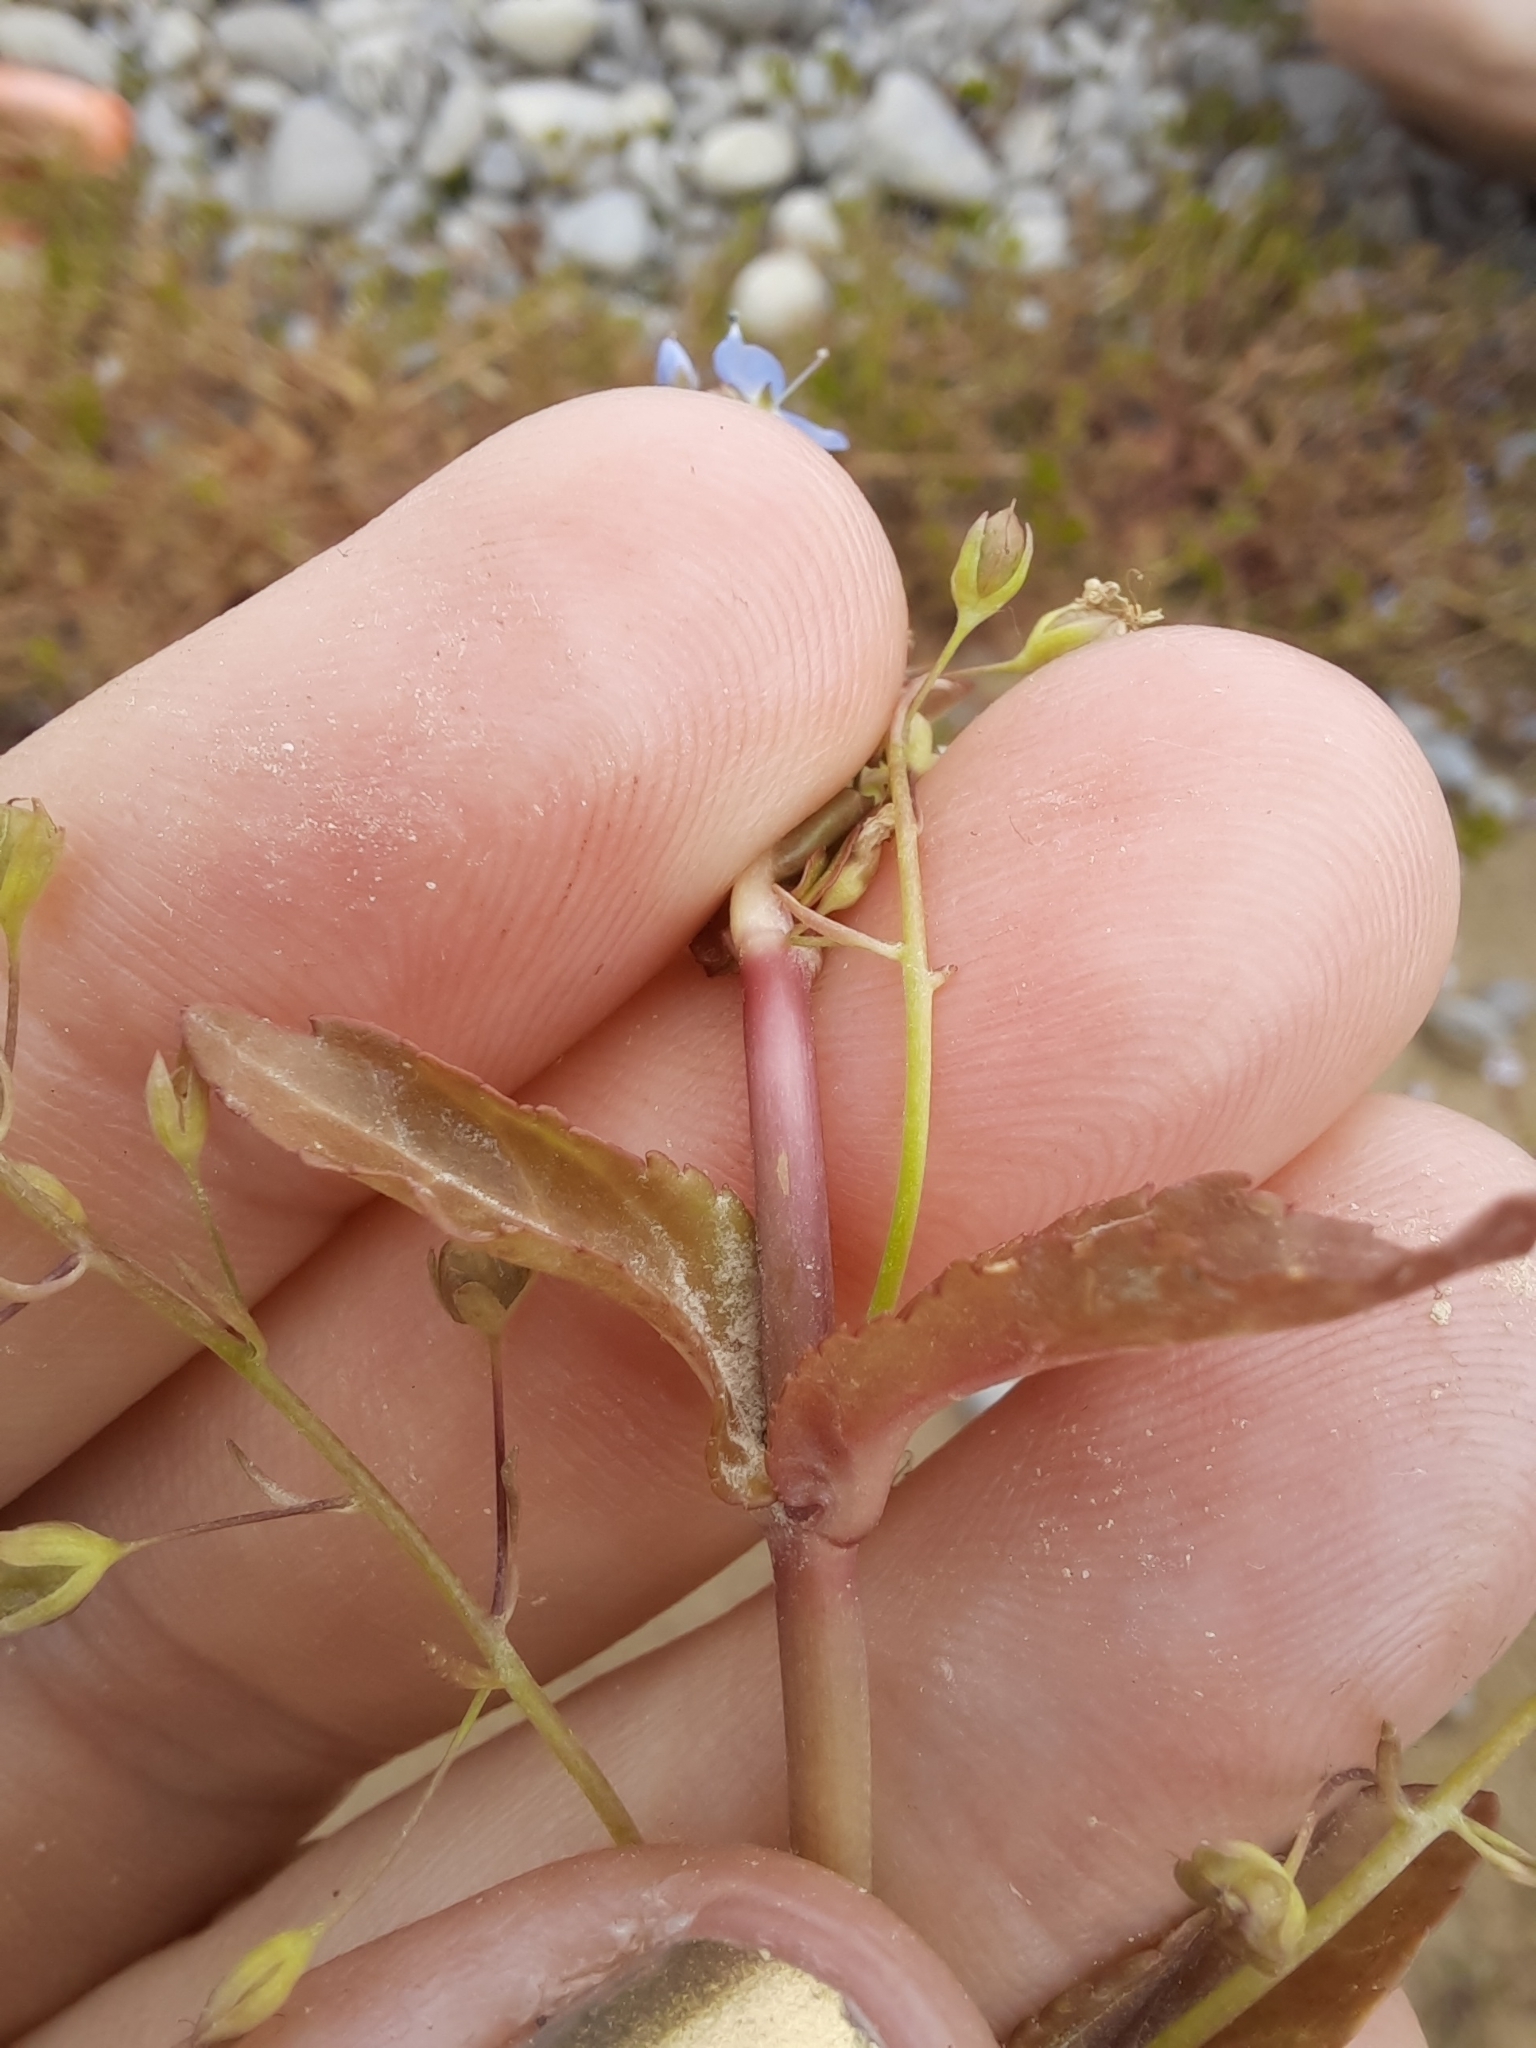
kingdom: Plantae
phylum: Tracheophyta
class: Magnoliopsida
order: Lamiales
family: Plantaginaceae
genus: Veronica
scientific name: Veronica americana
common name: American brooklime
